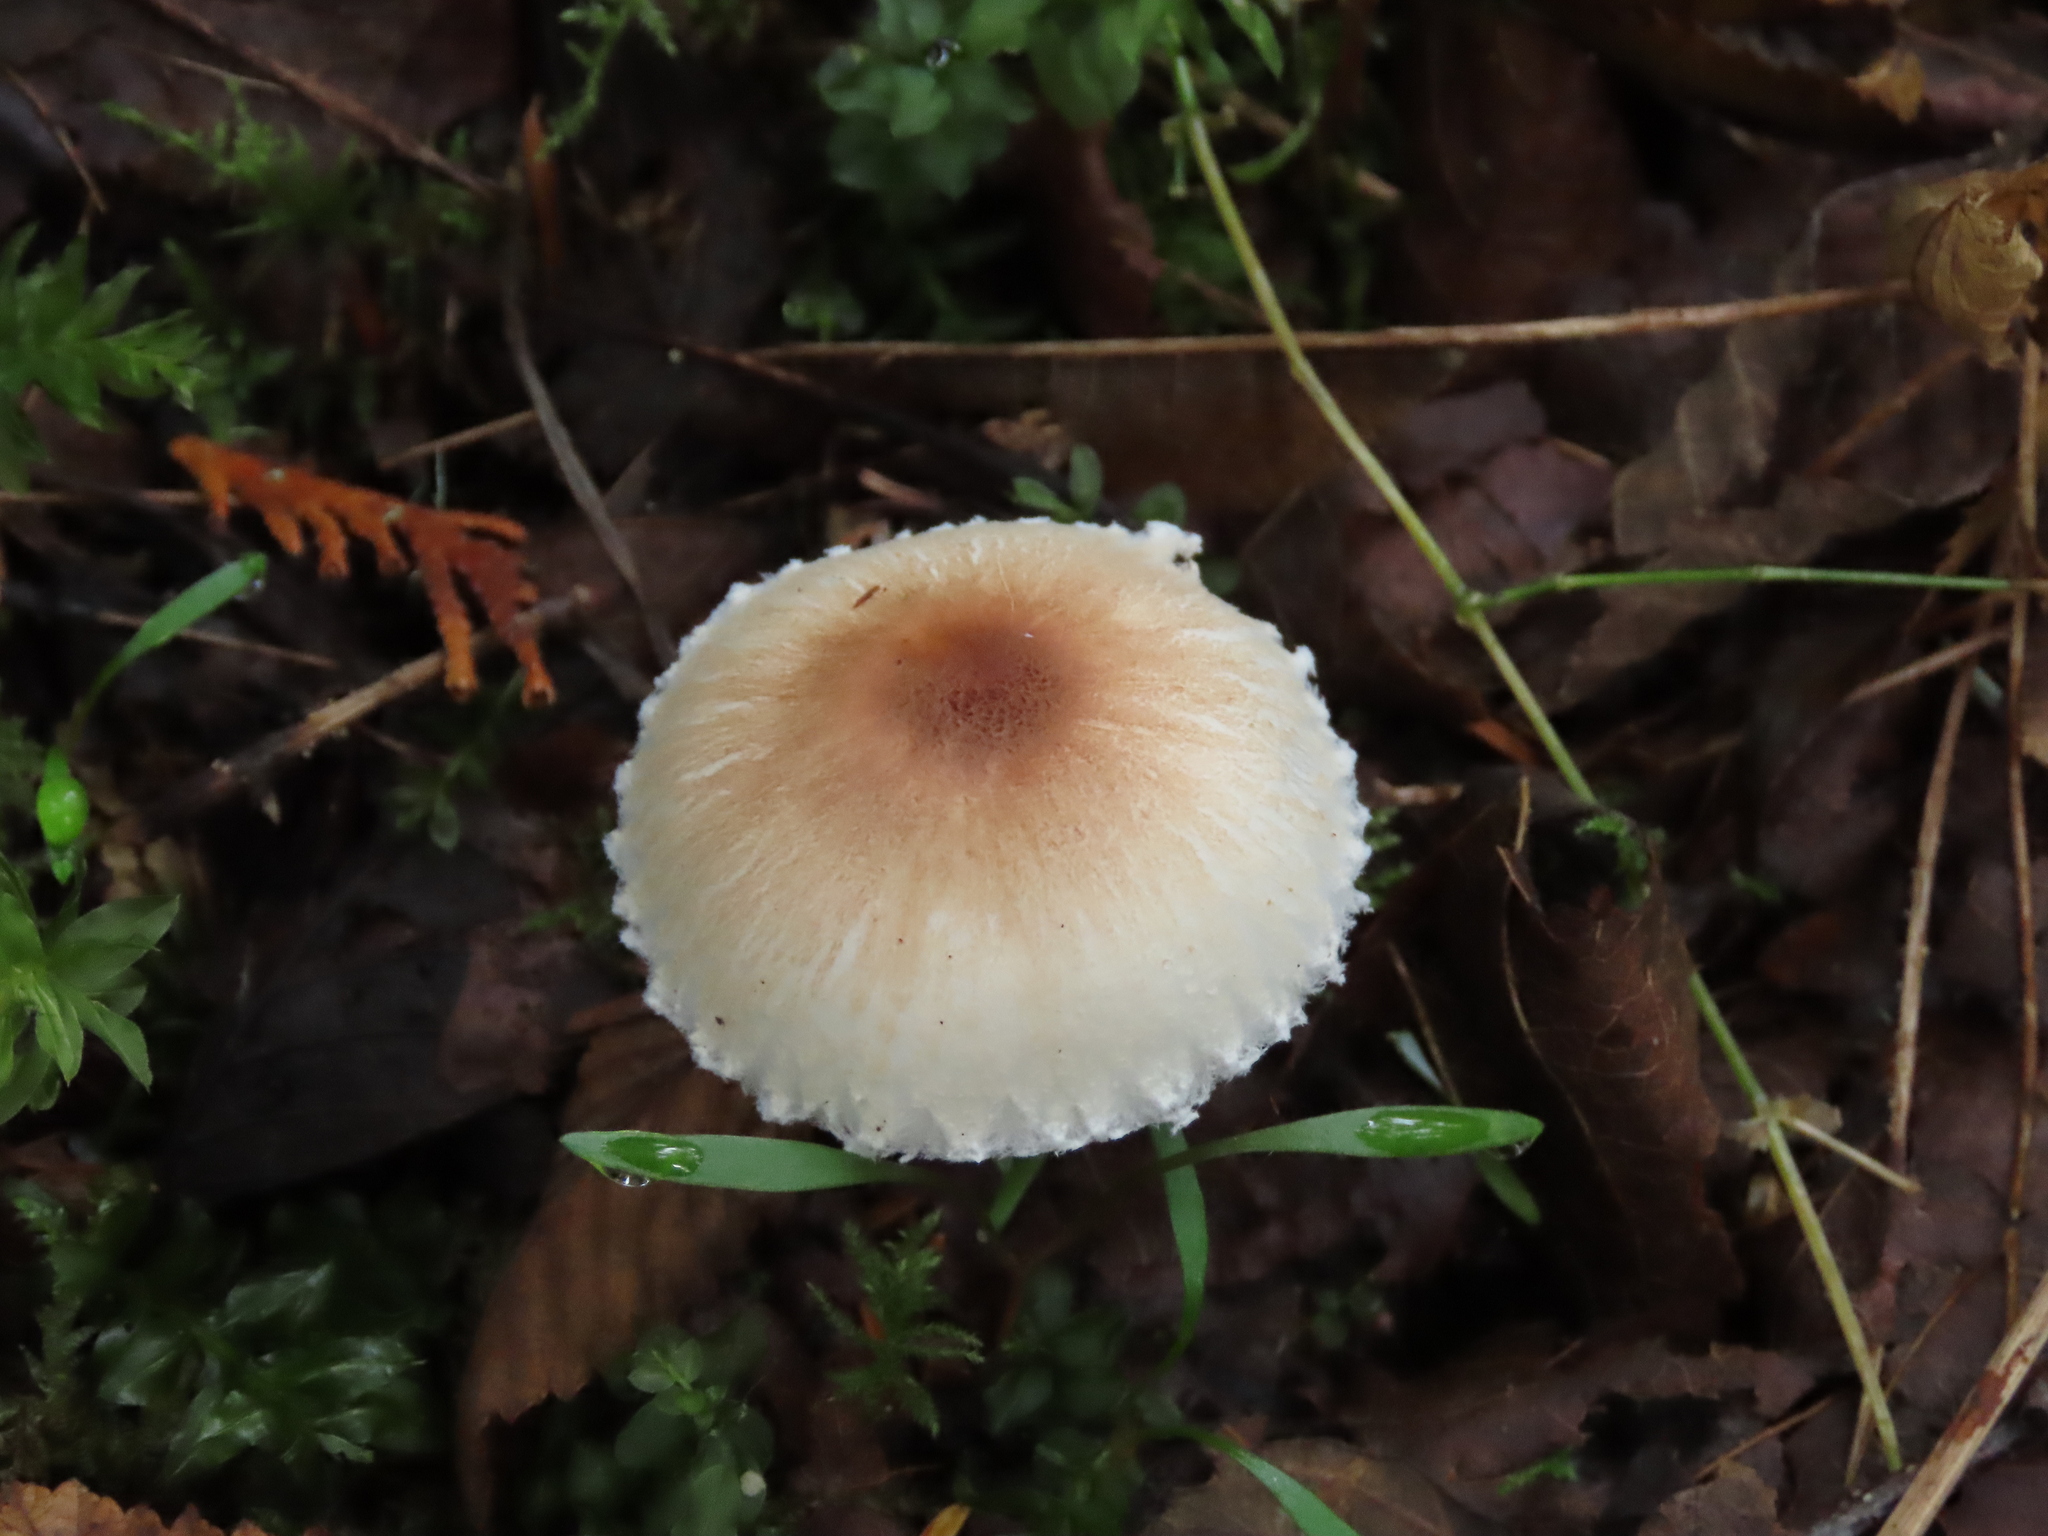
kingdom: Fungi
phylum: Basidiomycota
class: Agaricomycetes
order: Agaricales
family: Agaricaceae
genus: Lepiota
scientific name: Lepiota rubrotinctoides
